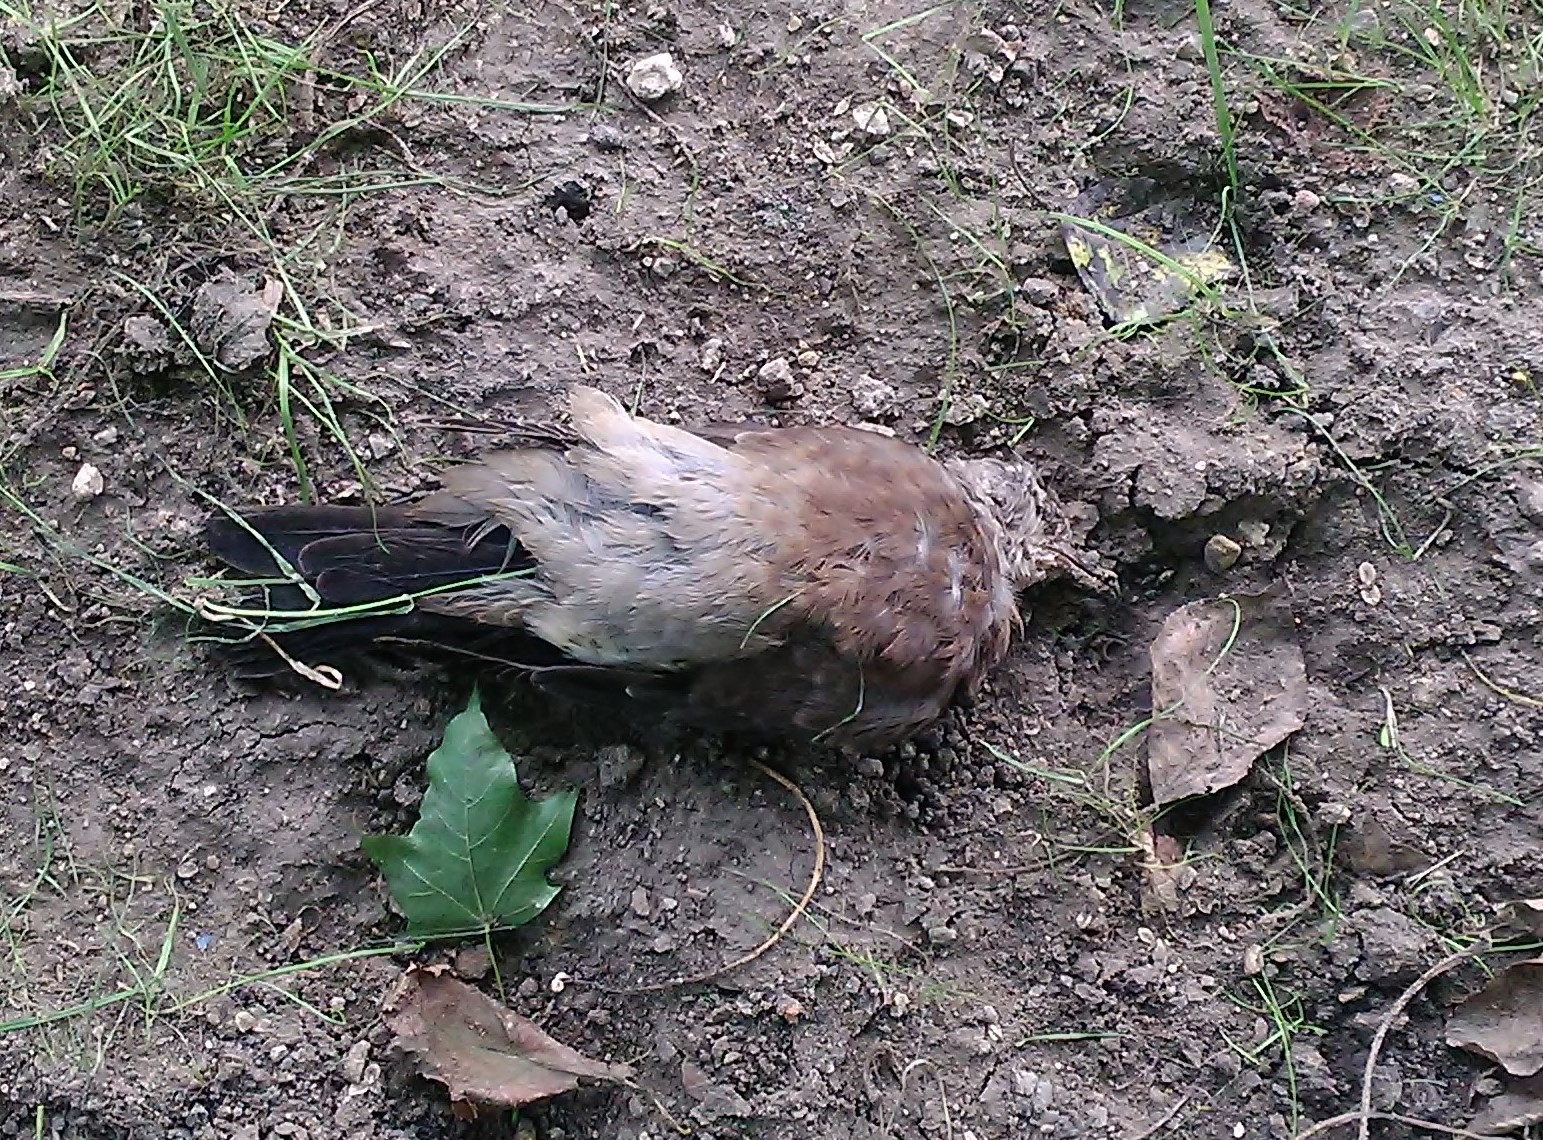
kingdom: Animalia
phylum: Chordata
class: Aves
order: Passeriformes
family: Turdidae
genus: Turdus
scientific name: Turdus pilaris
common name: Fieldfare
